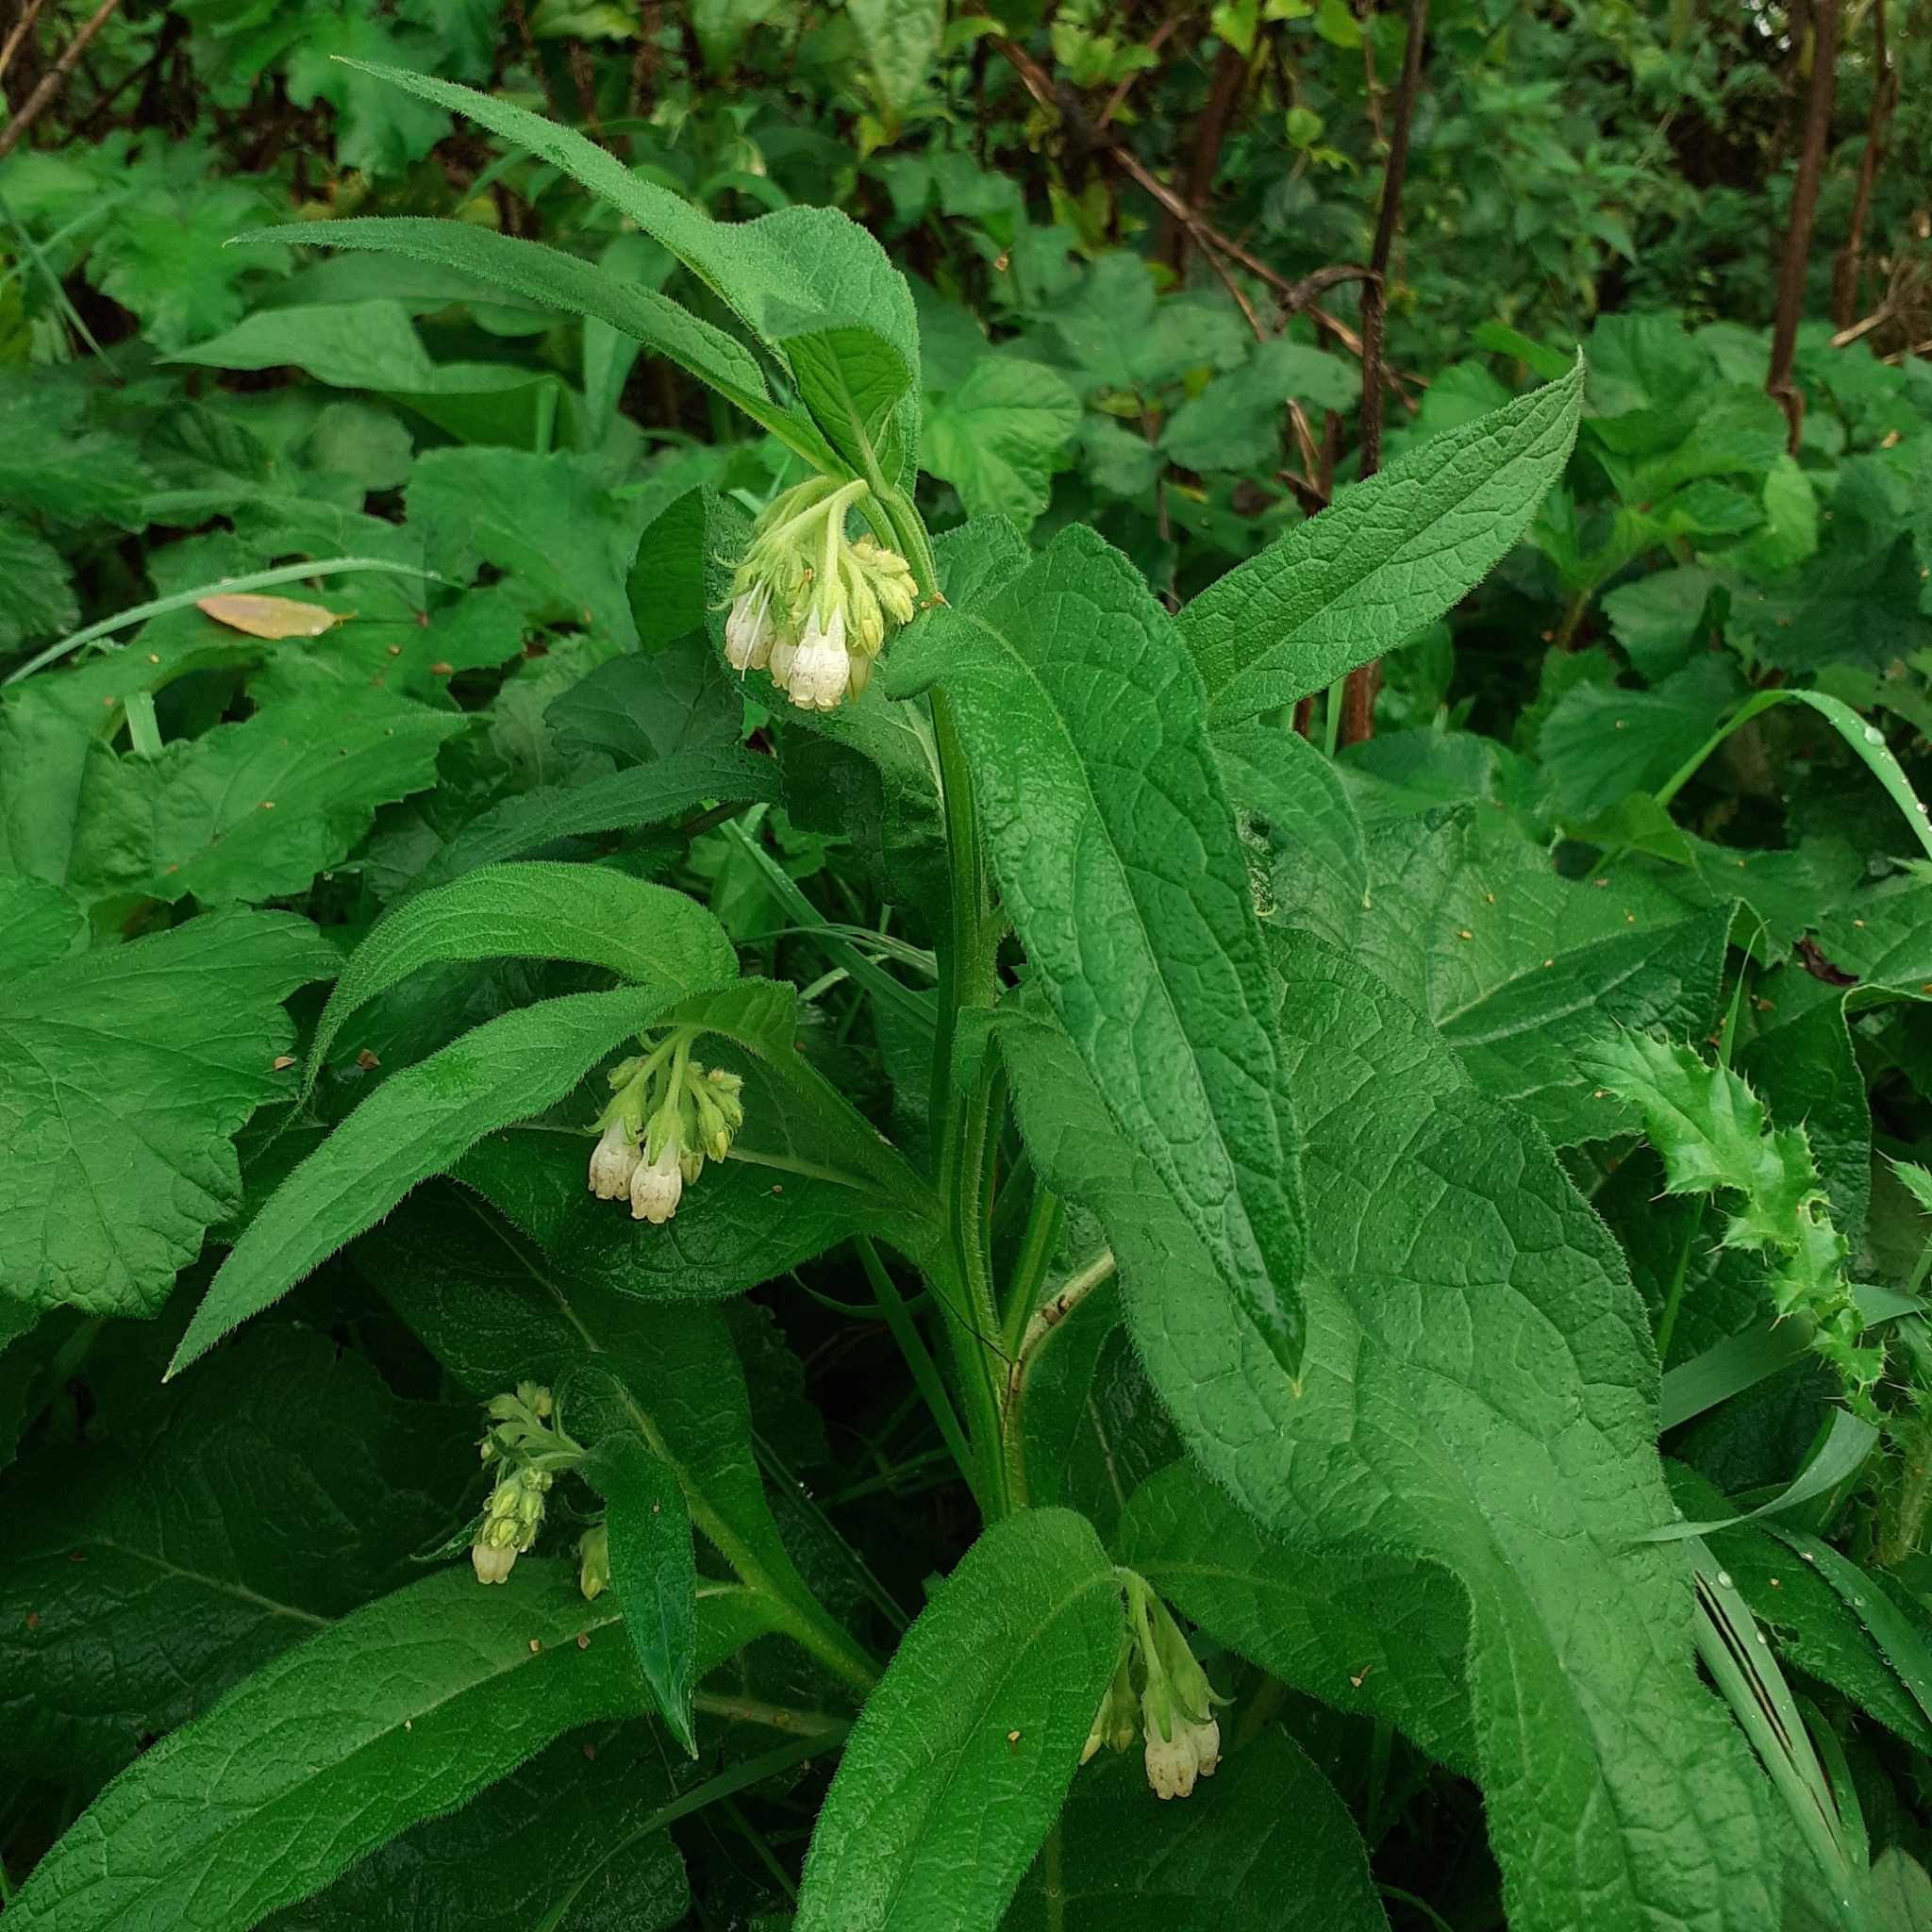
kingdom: Plantae
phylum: Tracheophyta
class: Magnoliopsida
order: Boraginales
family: Boraginaceae
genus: Symphytum
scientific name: Symphytum officinale
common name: Common comfrey
